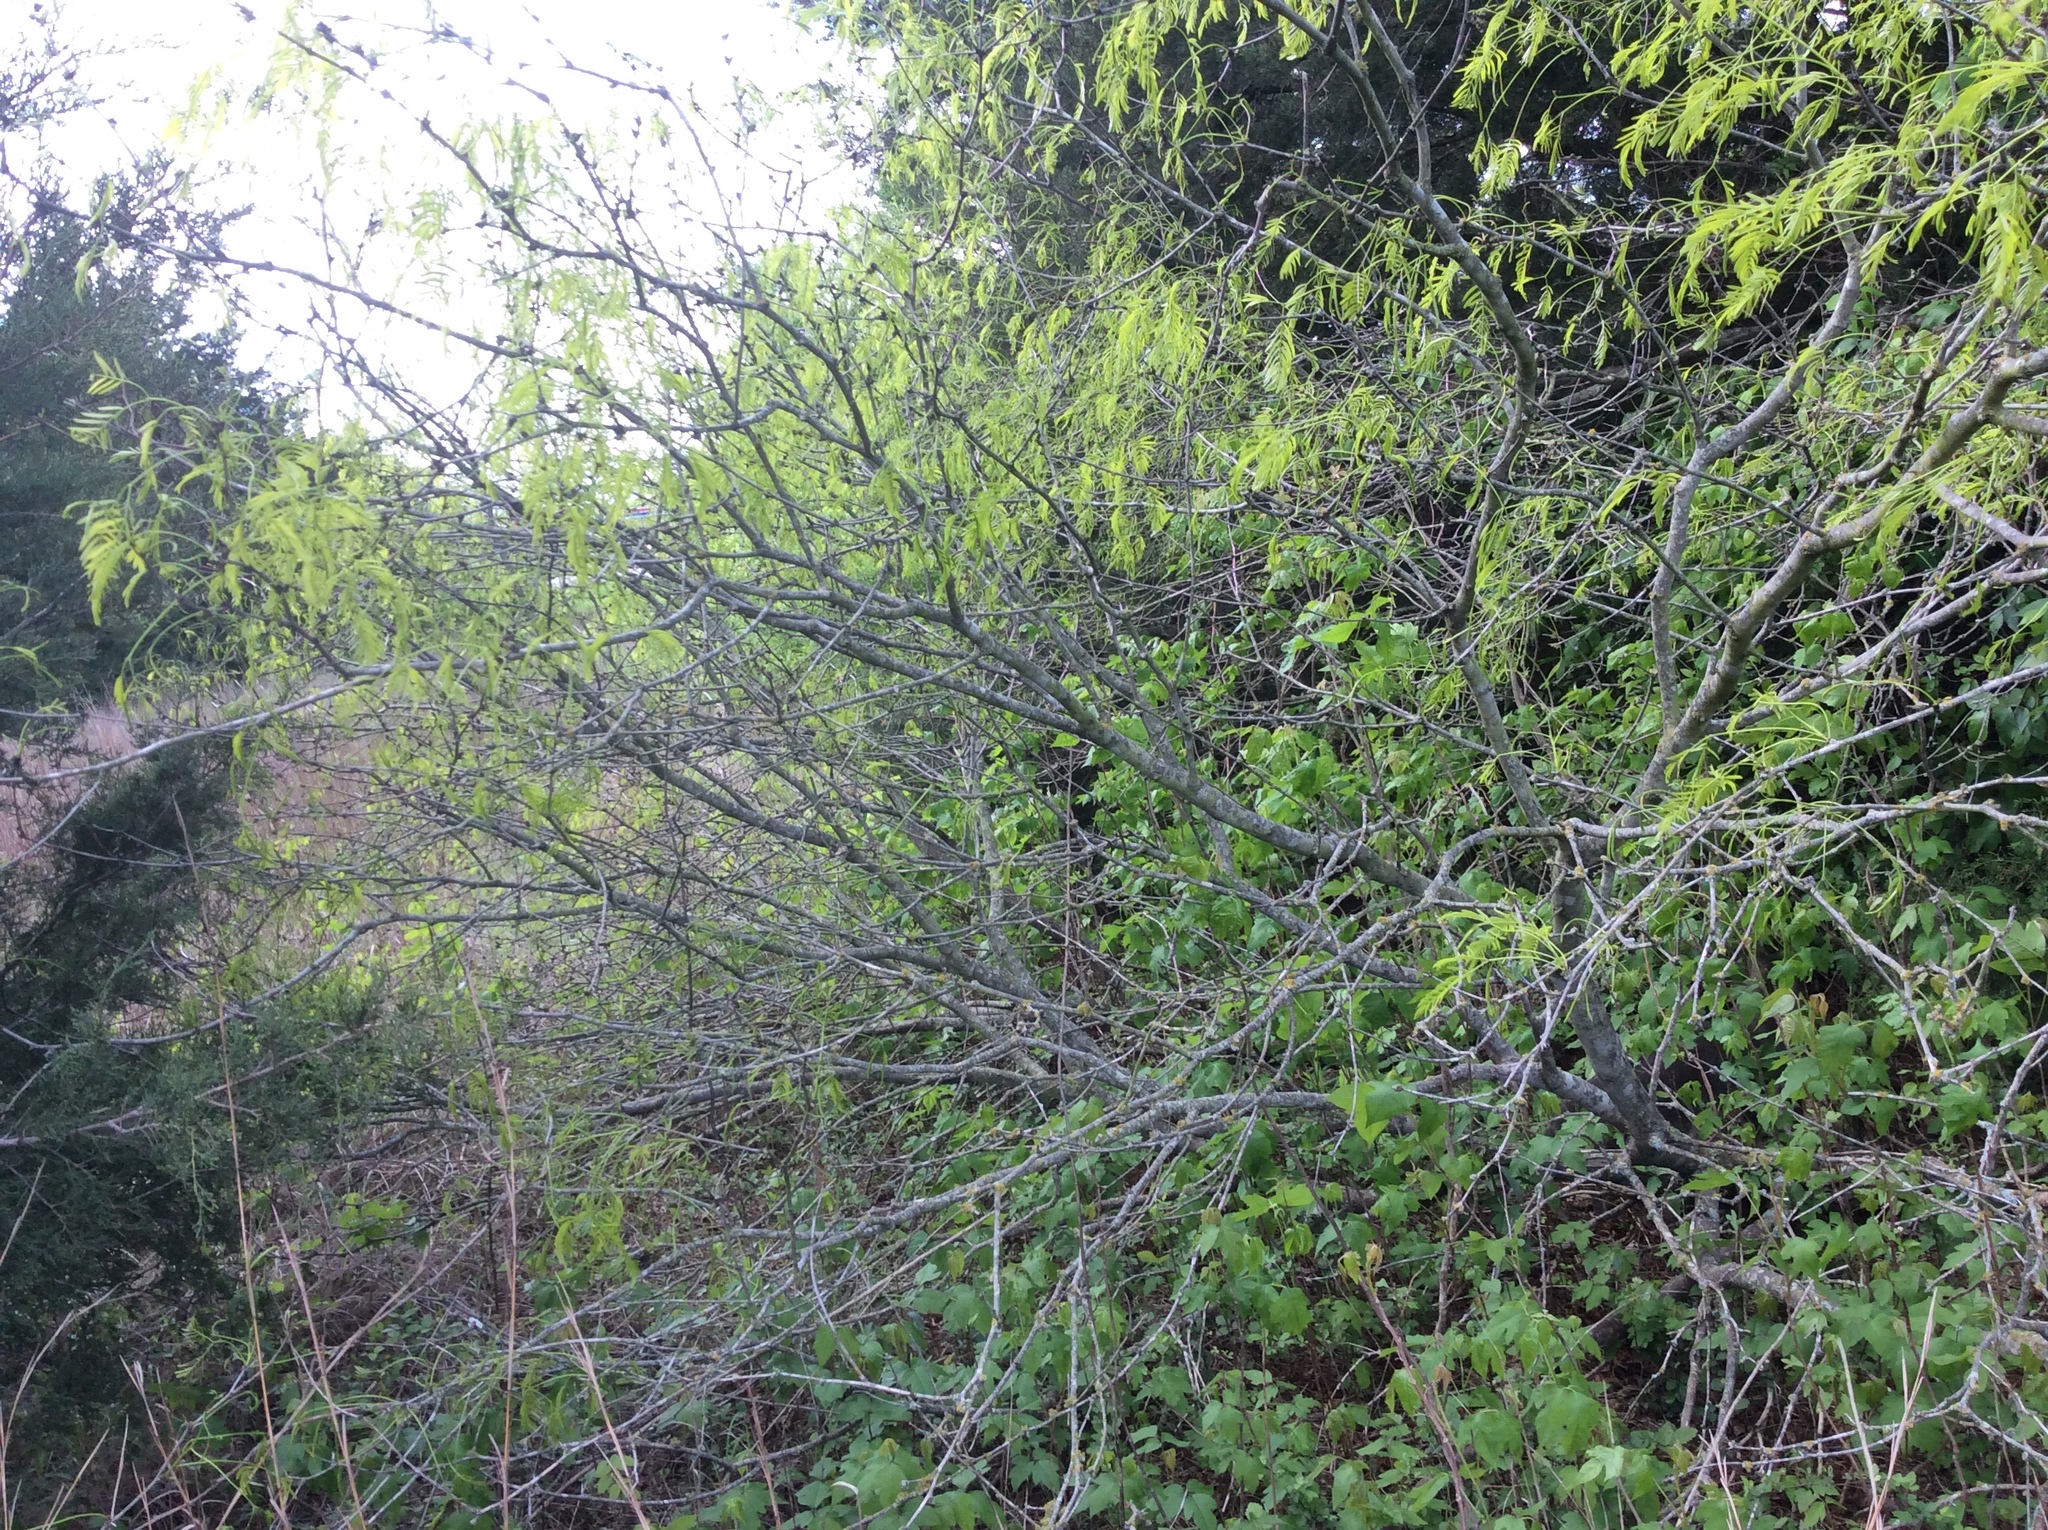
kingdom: Plantae
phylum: Tracheophyta
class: Magnoliopsida
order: Fabales
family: Fabaceae
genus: Prosopis
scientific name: Prosopis glandulosa
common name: Honey mesquite
